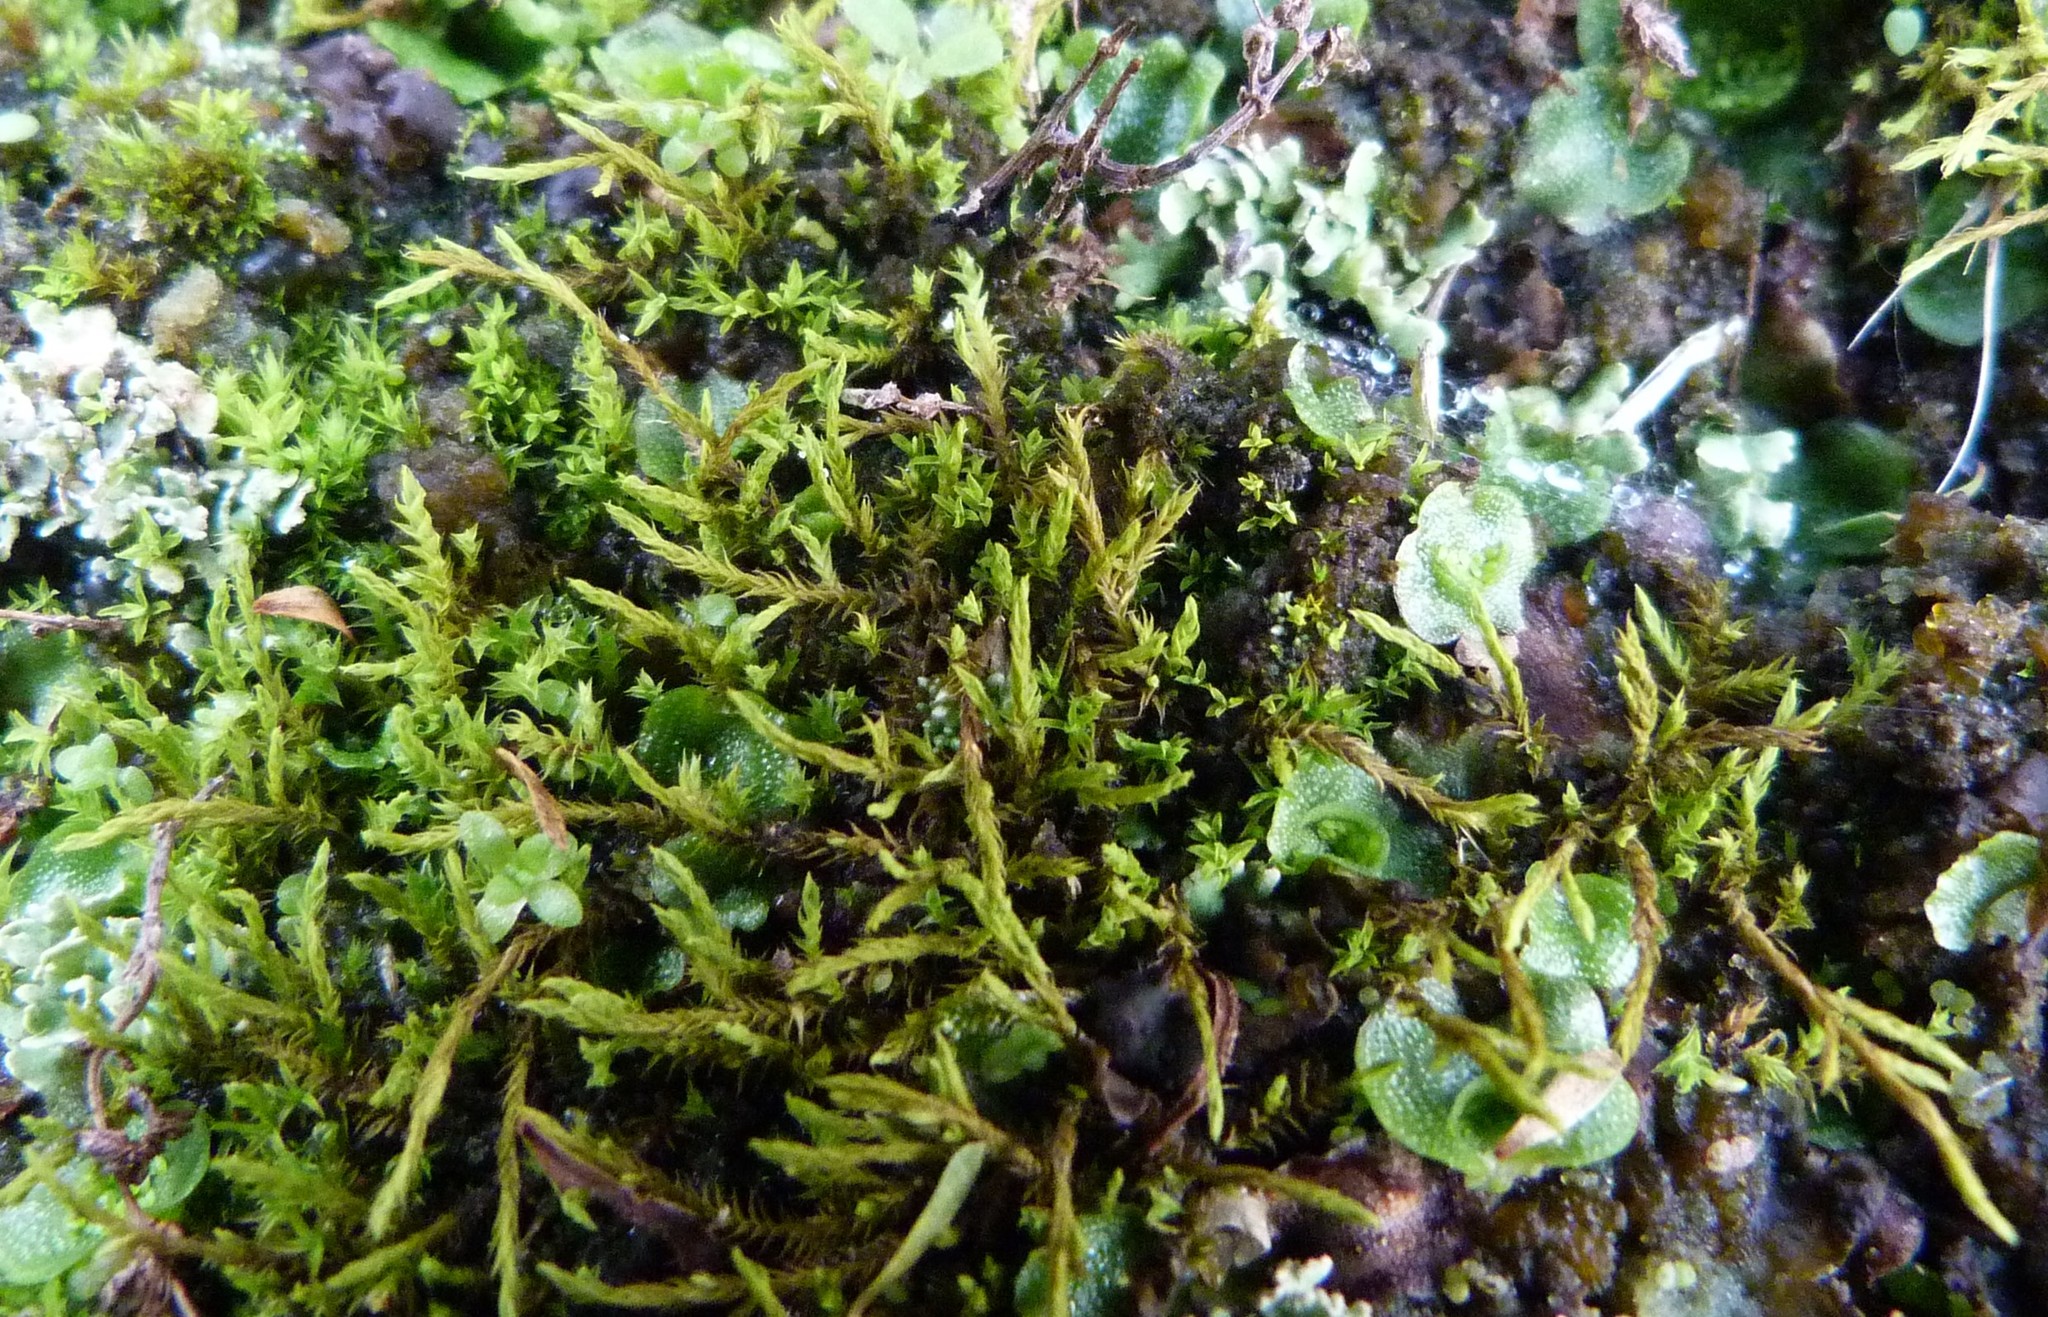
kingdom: Plantae
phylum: Bryophyta
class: Bryopsida
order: Pottiales
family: Pottiaceae
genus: Triquetrella
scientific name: Triquetrella papillata
